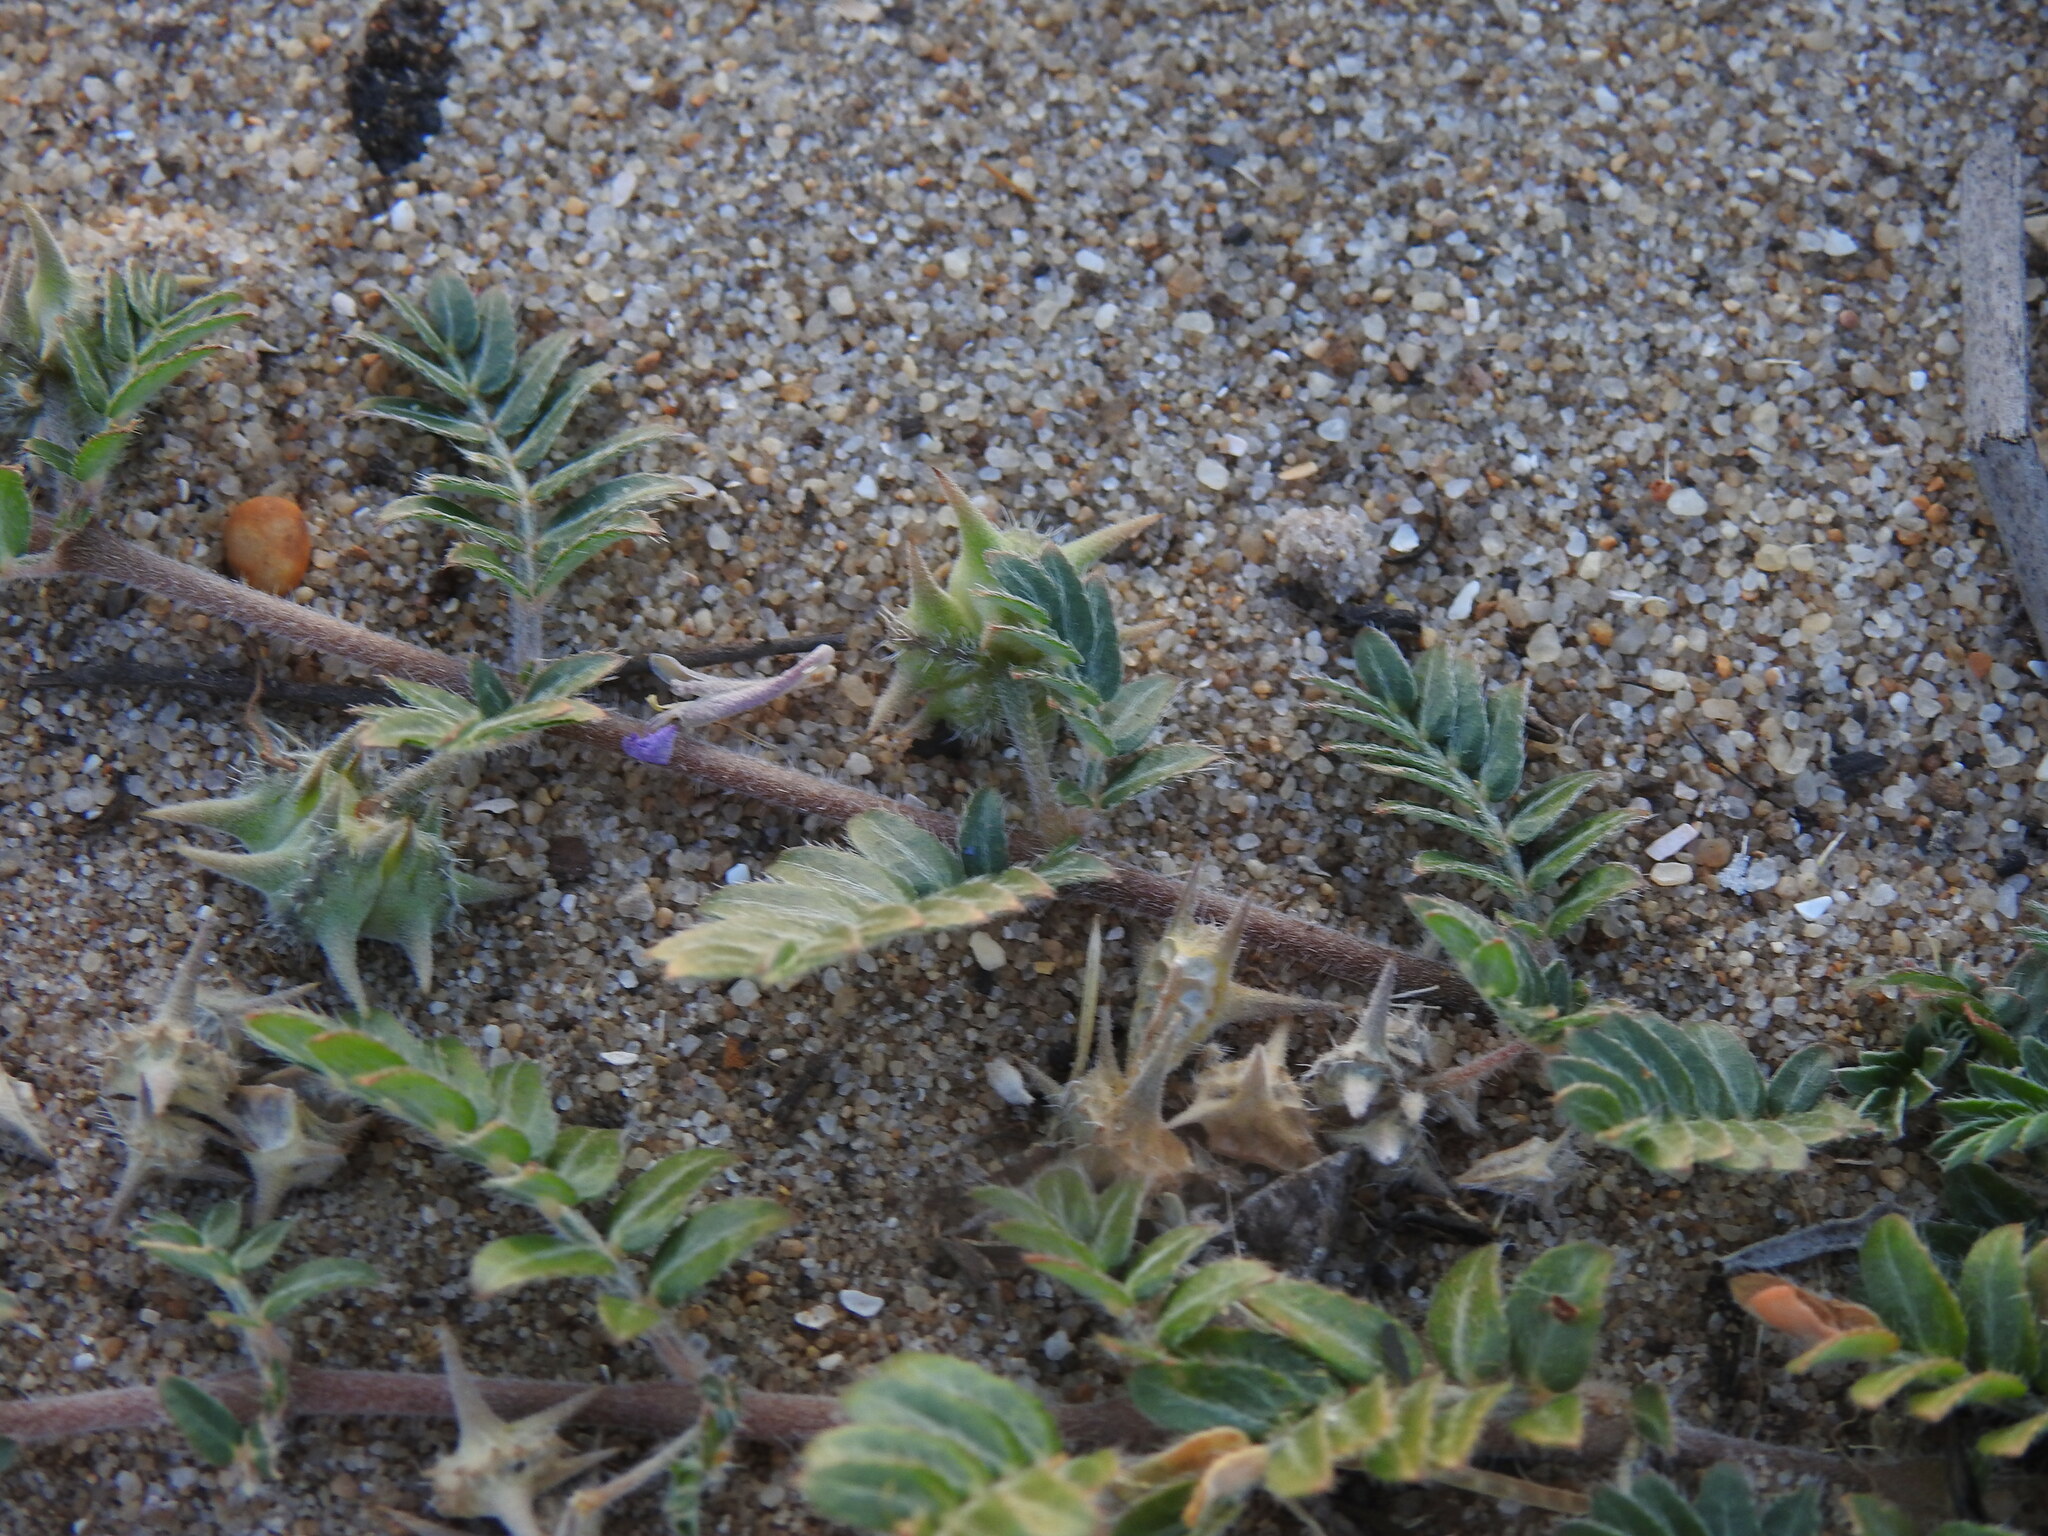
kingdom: Plantae
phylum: Tracheophyta
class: Magnoliopsida
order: Zygophyllales
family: Zygophyllaceae
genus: Tribulus
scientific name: Tribulus terrestris
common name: Puncturevine
